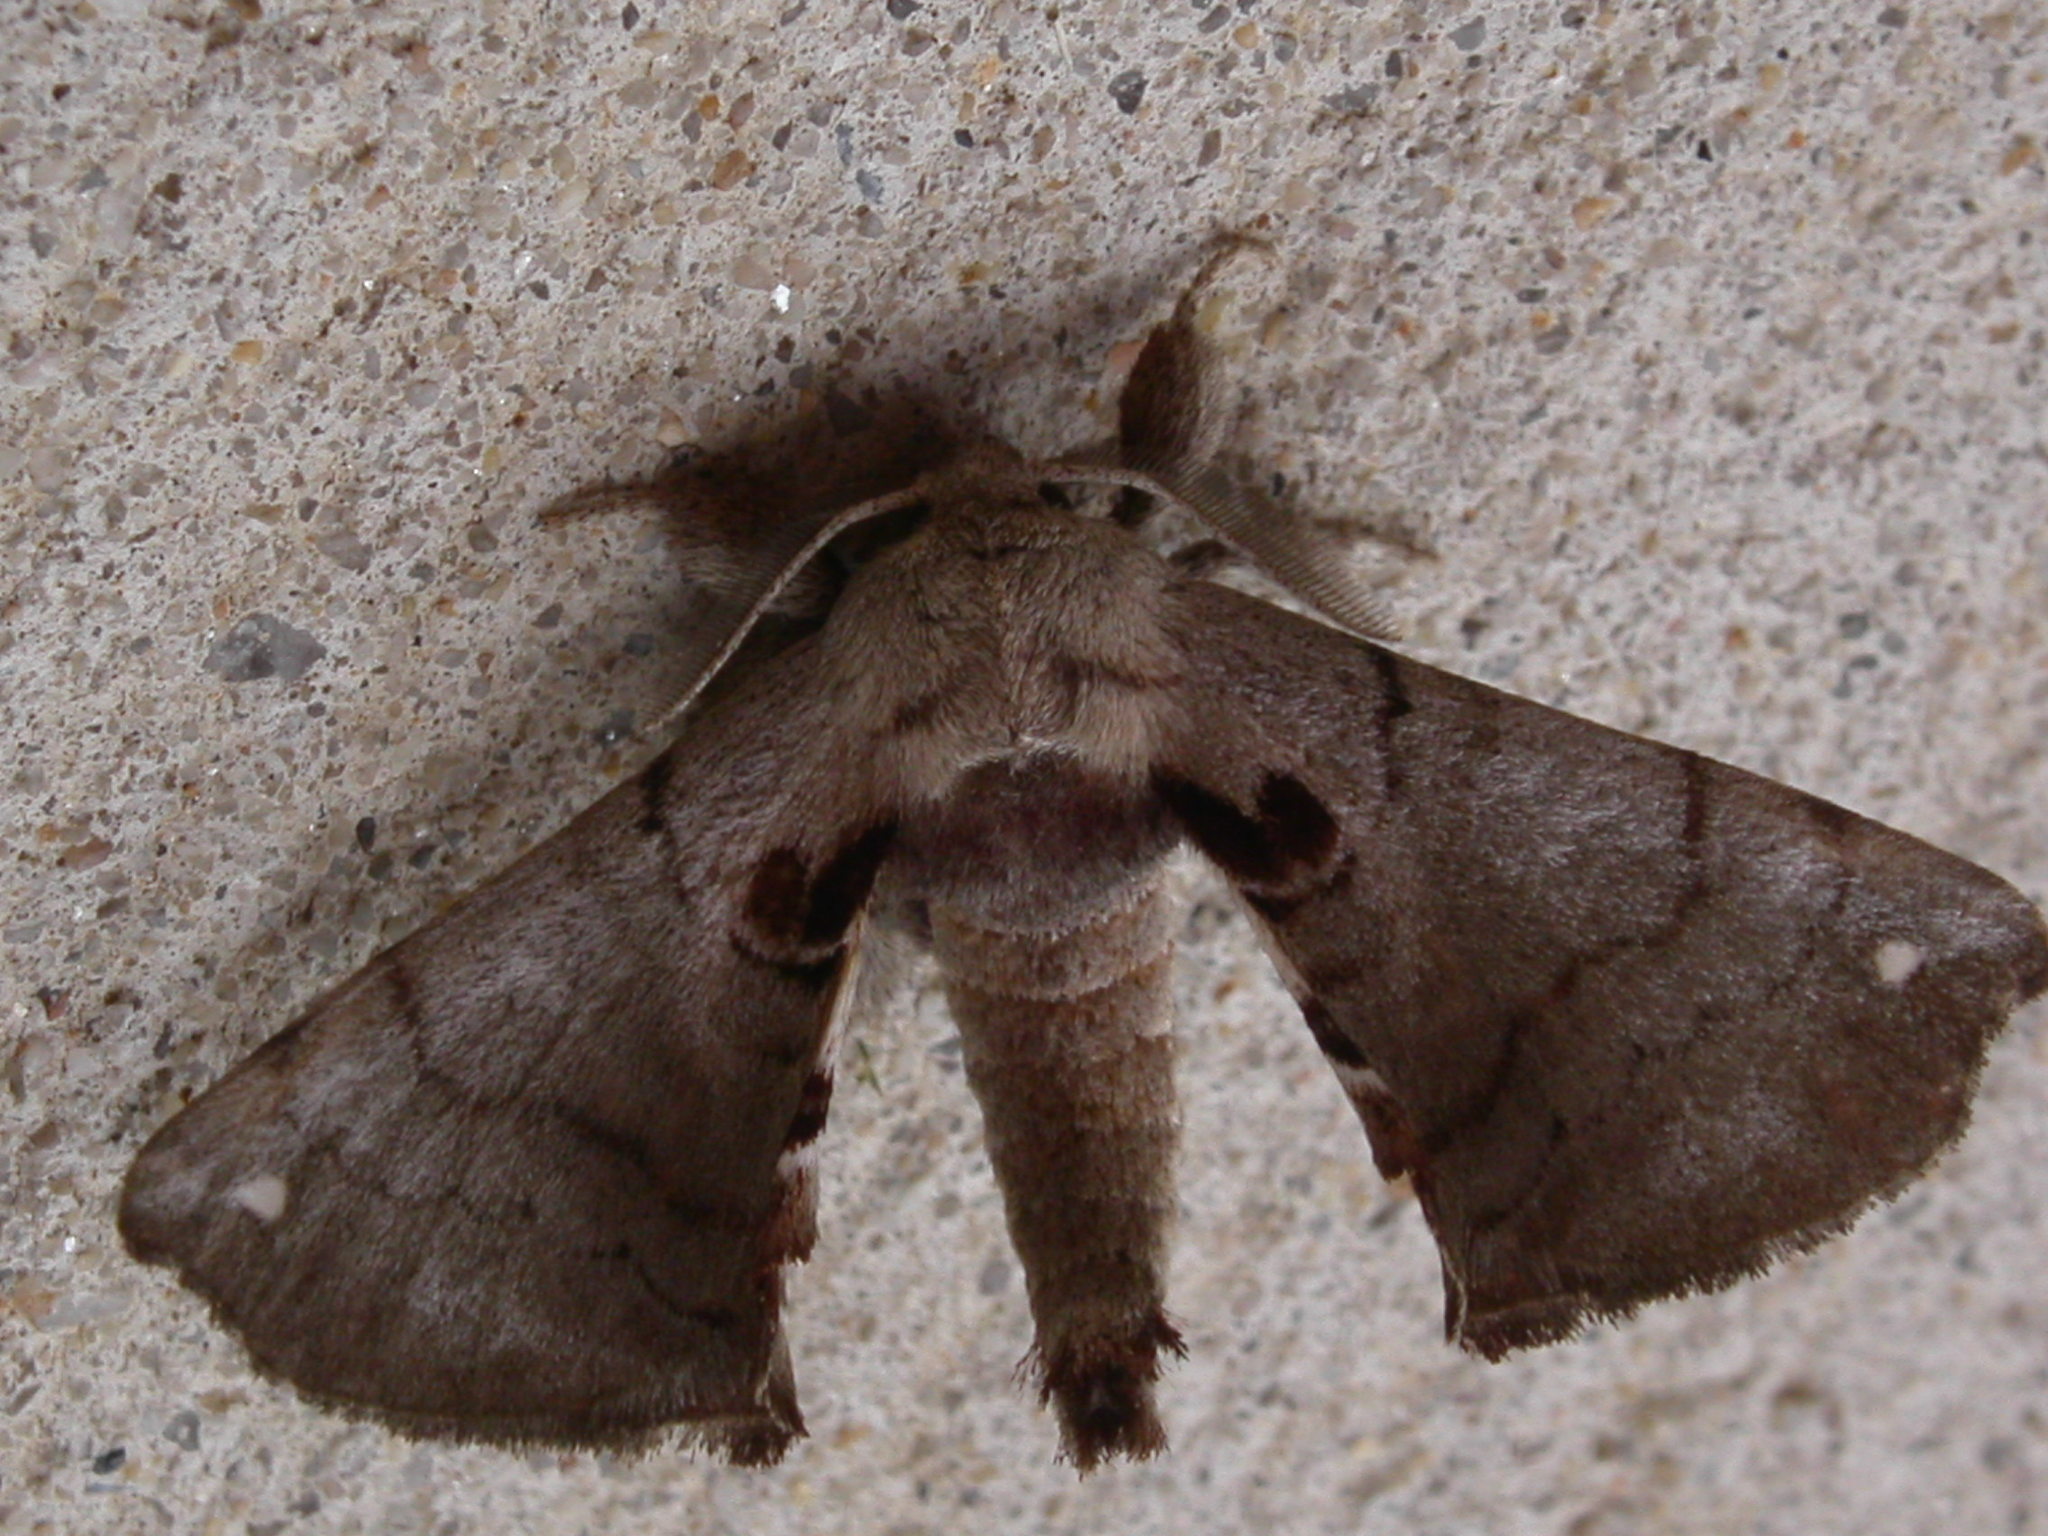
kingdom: Animalia
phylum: Arthropoda
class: Insecta
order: Lepidoptera
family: Apatelodidae
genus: Hygrochroa
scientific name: Hygrochroa Apatelodes torrefacta
